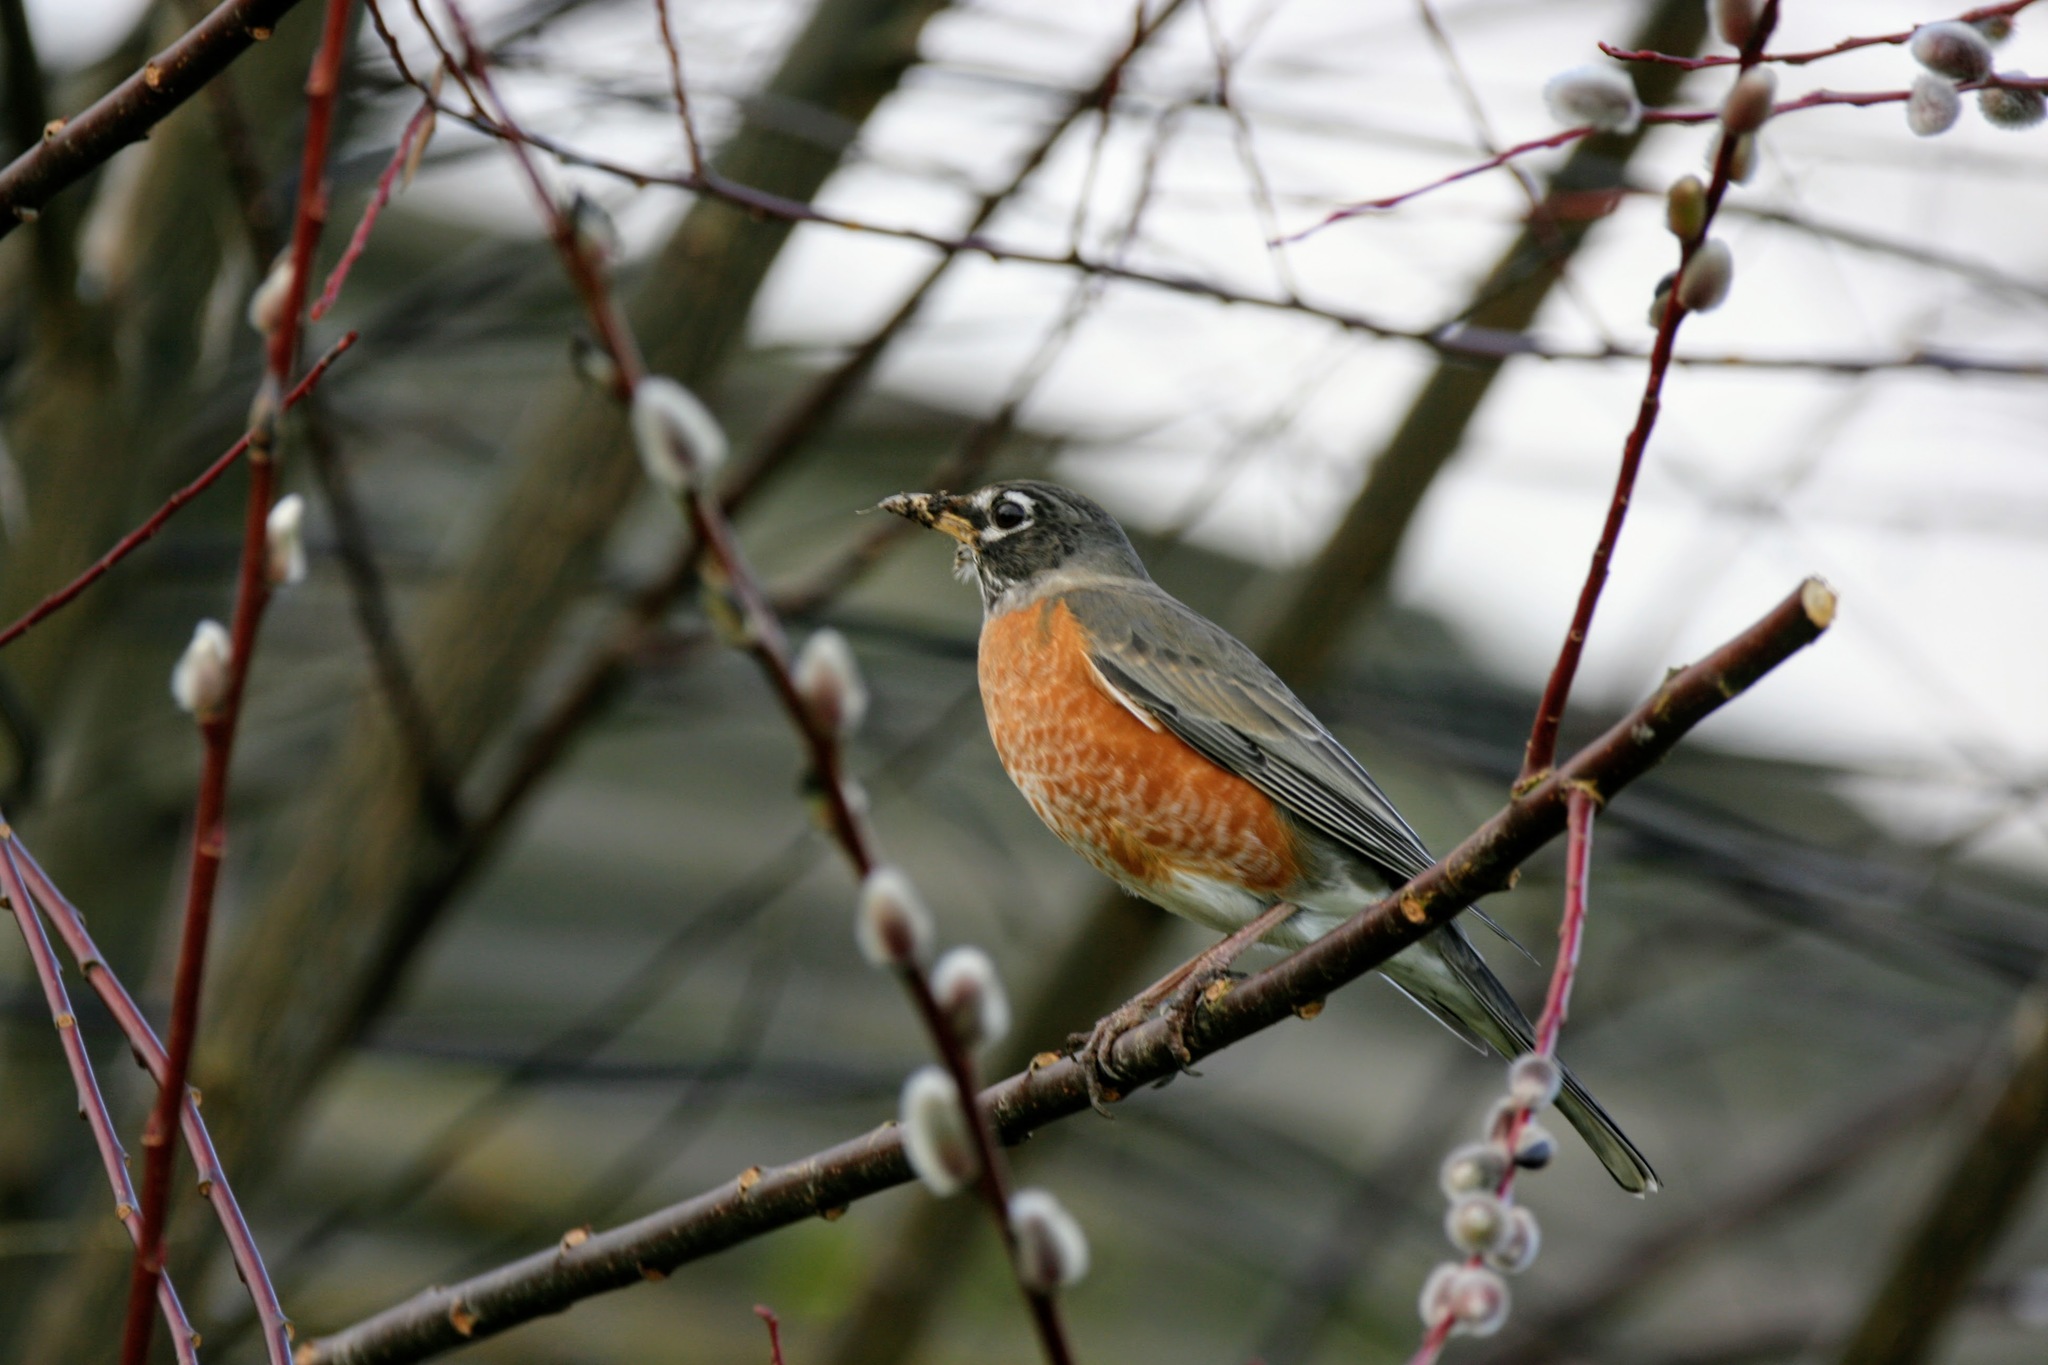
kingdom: Animalia
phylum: Chordata
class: Aves
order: Passeriformes
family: Turdidae
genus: Turdus
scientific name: Turdus migratorius
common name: American robin
